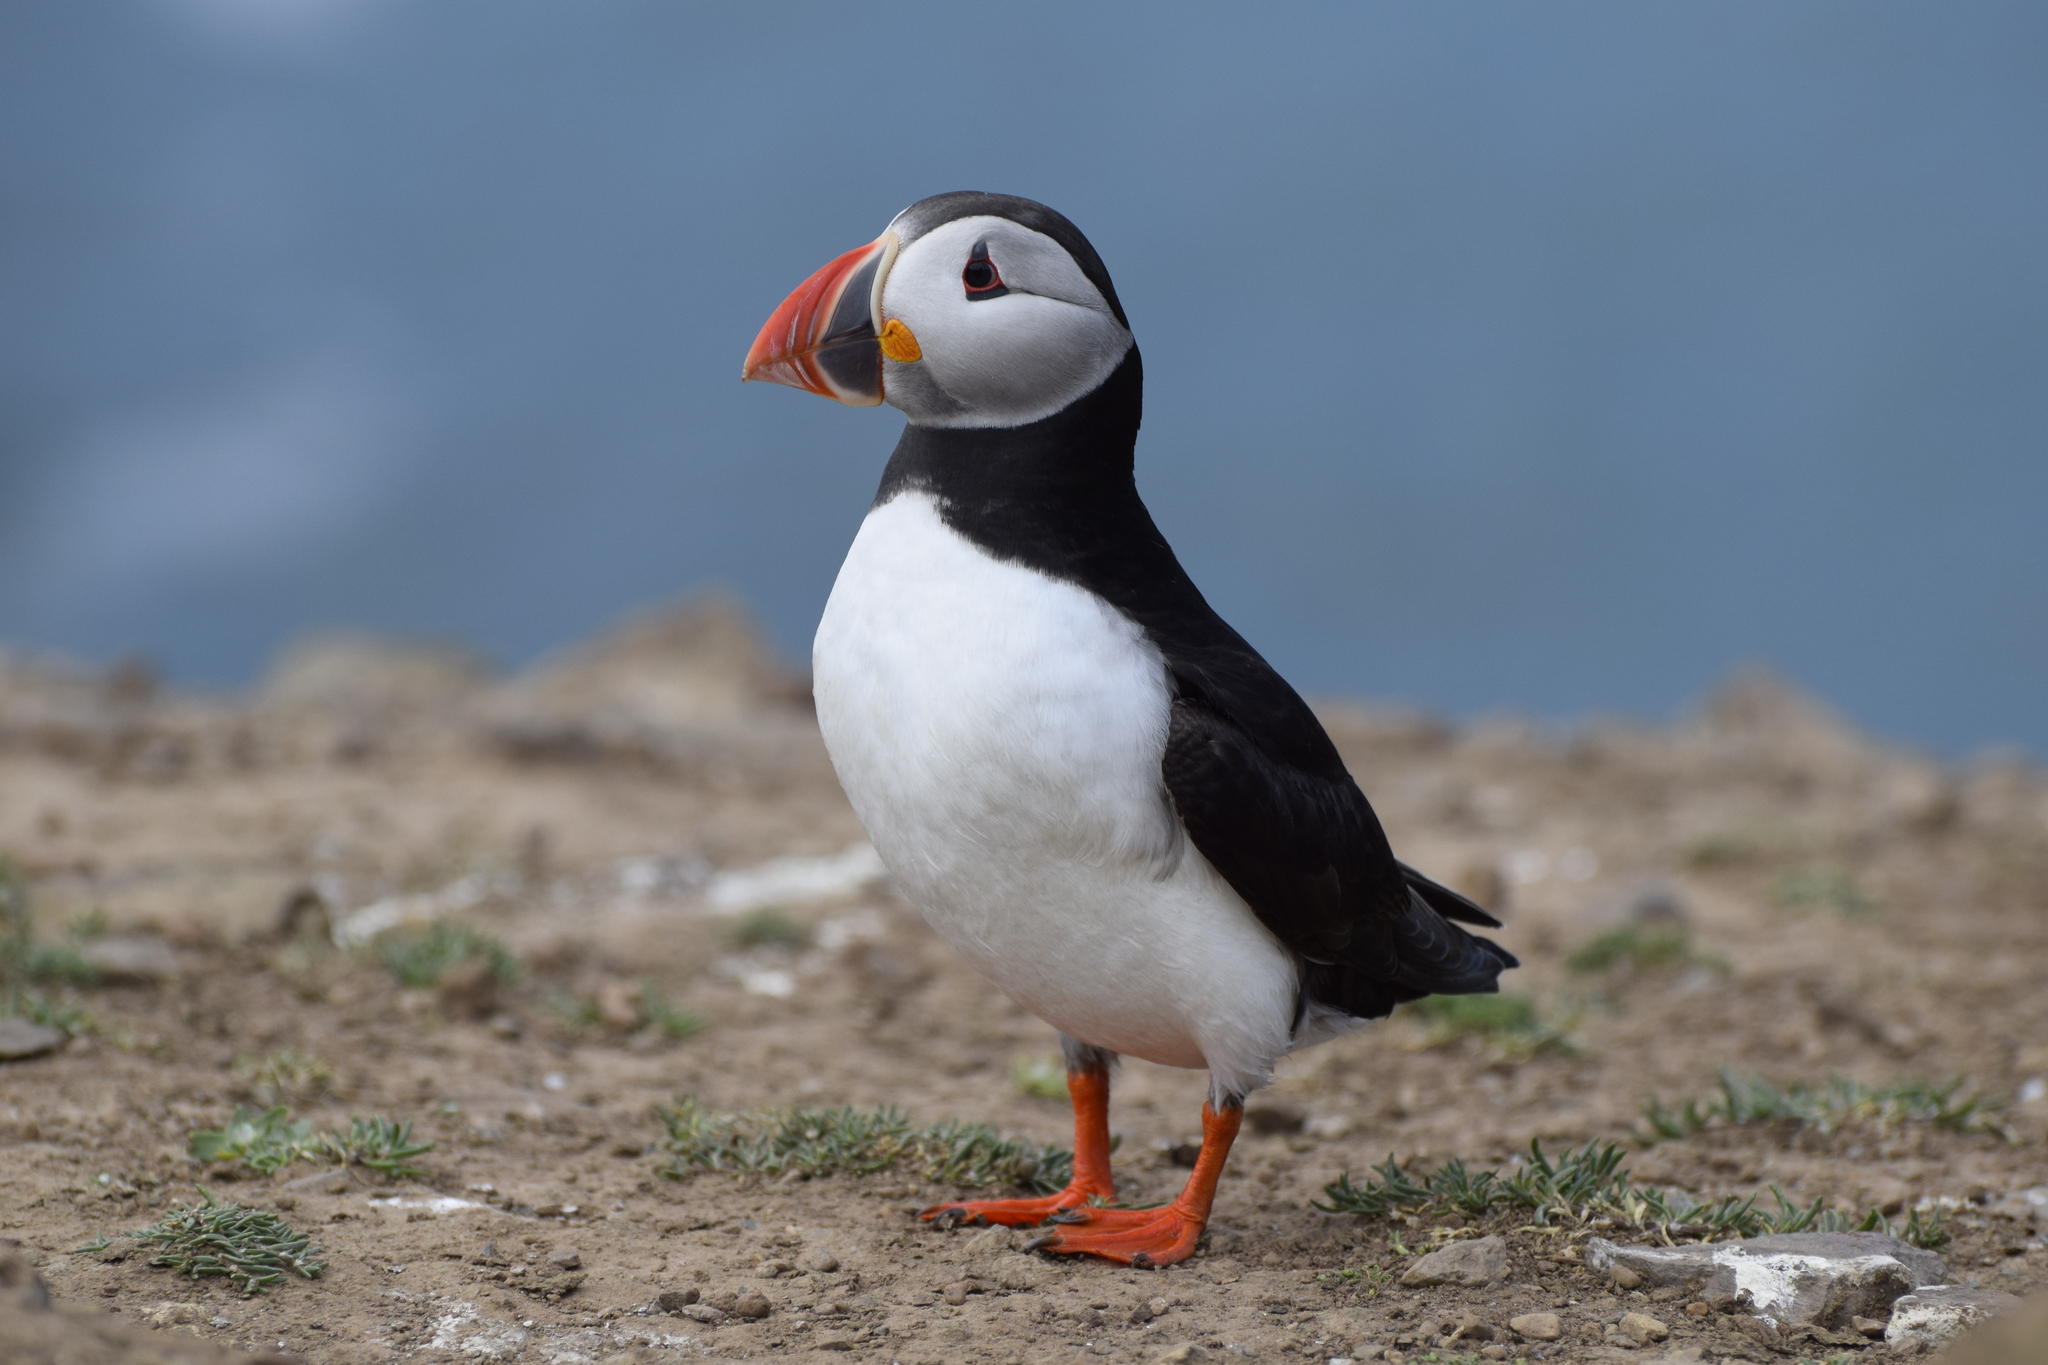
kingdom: Animalia
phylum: Chordata
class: Aves
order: Charadriiformes
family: Alcidae
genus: Fratercula
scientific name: Fratercula arctica
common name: Atlantic puffin
